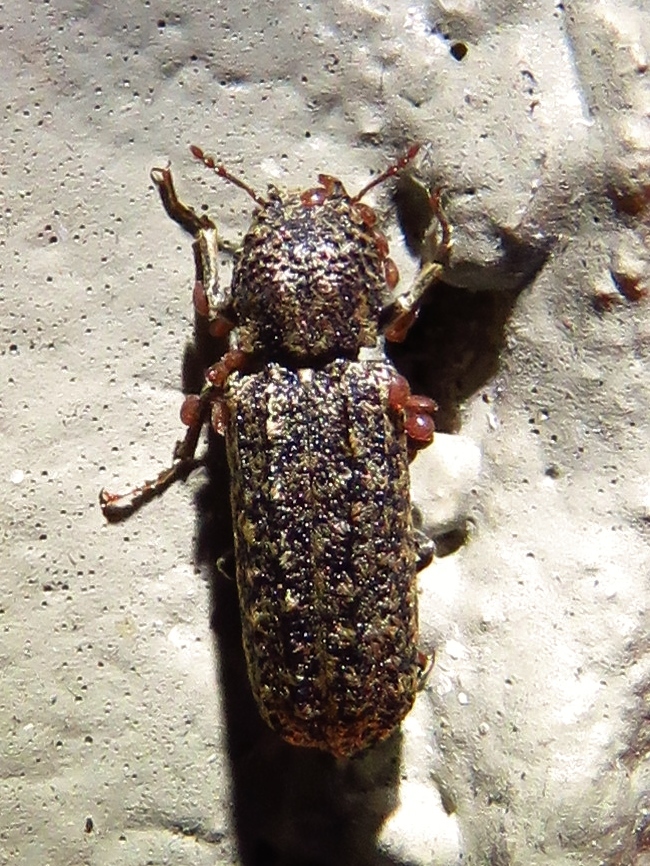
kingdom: Animalia
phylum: Arthropoda
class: Insecta
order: Coleoptera
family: Bostrichidae
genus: Lichenophanes
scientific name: Lichenophanes bicornis
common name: Two-horned powder-post beetle
